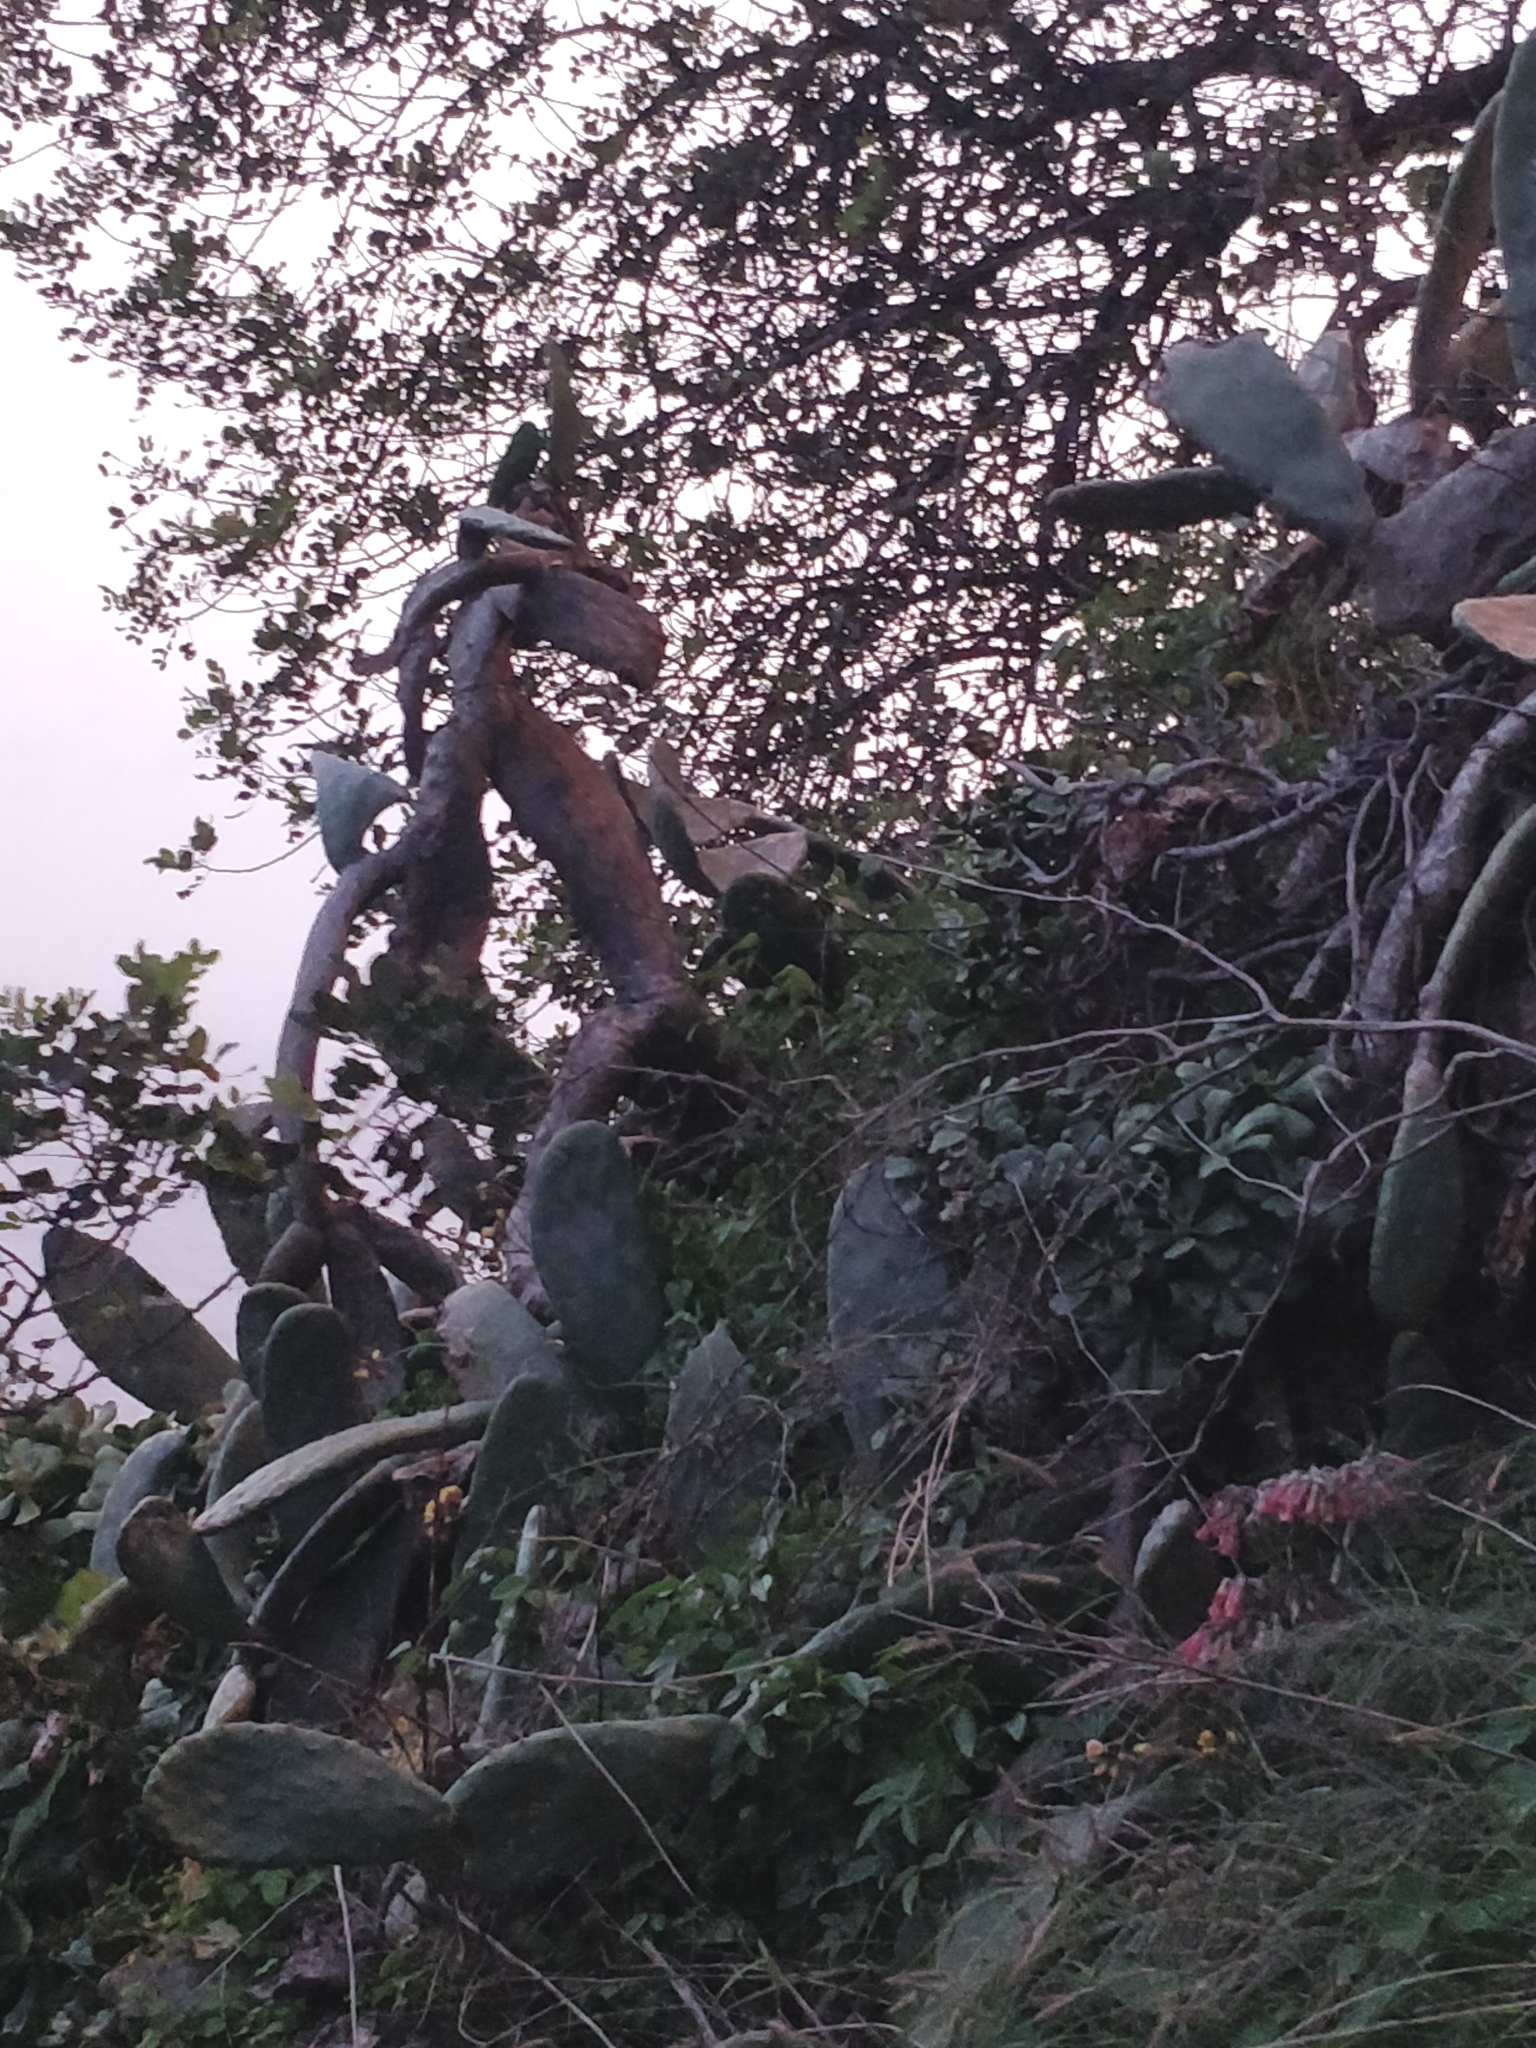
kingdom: Plantae
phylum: Tracheophyta
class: Magnoliopsida
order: Caryophyllales
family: Cactaceae
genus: Opuntia
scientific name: Opuntia ficus-indica
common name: Barbary fig
